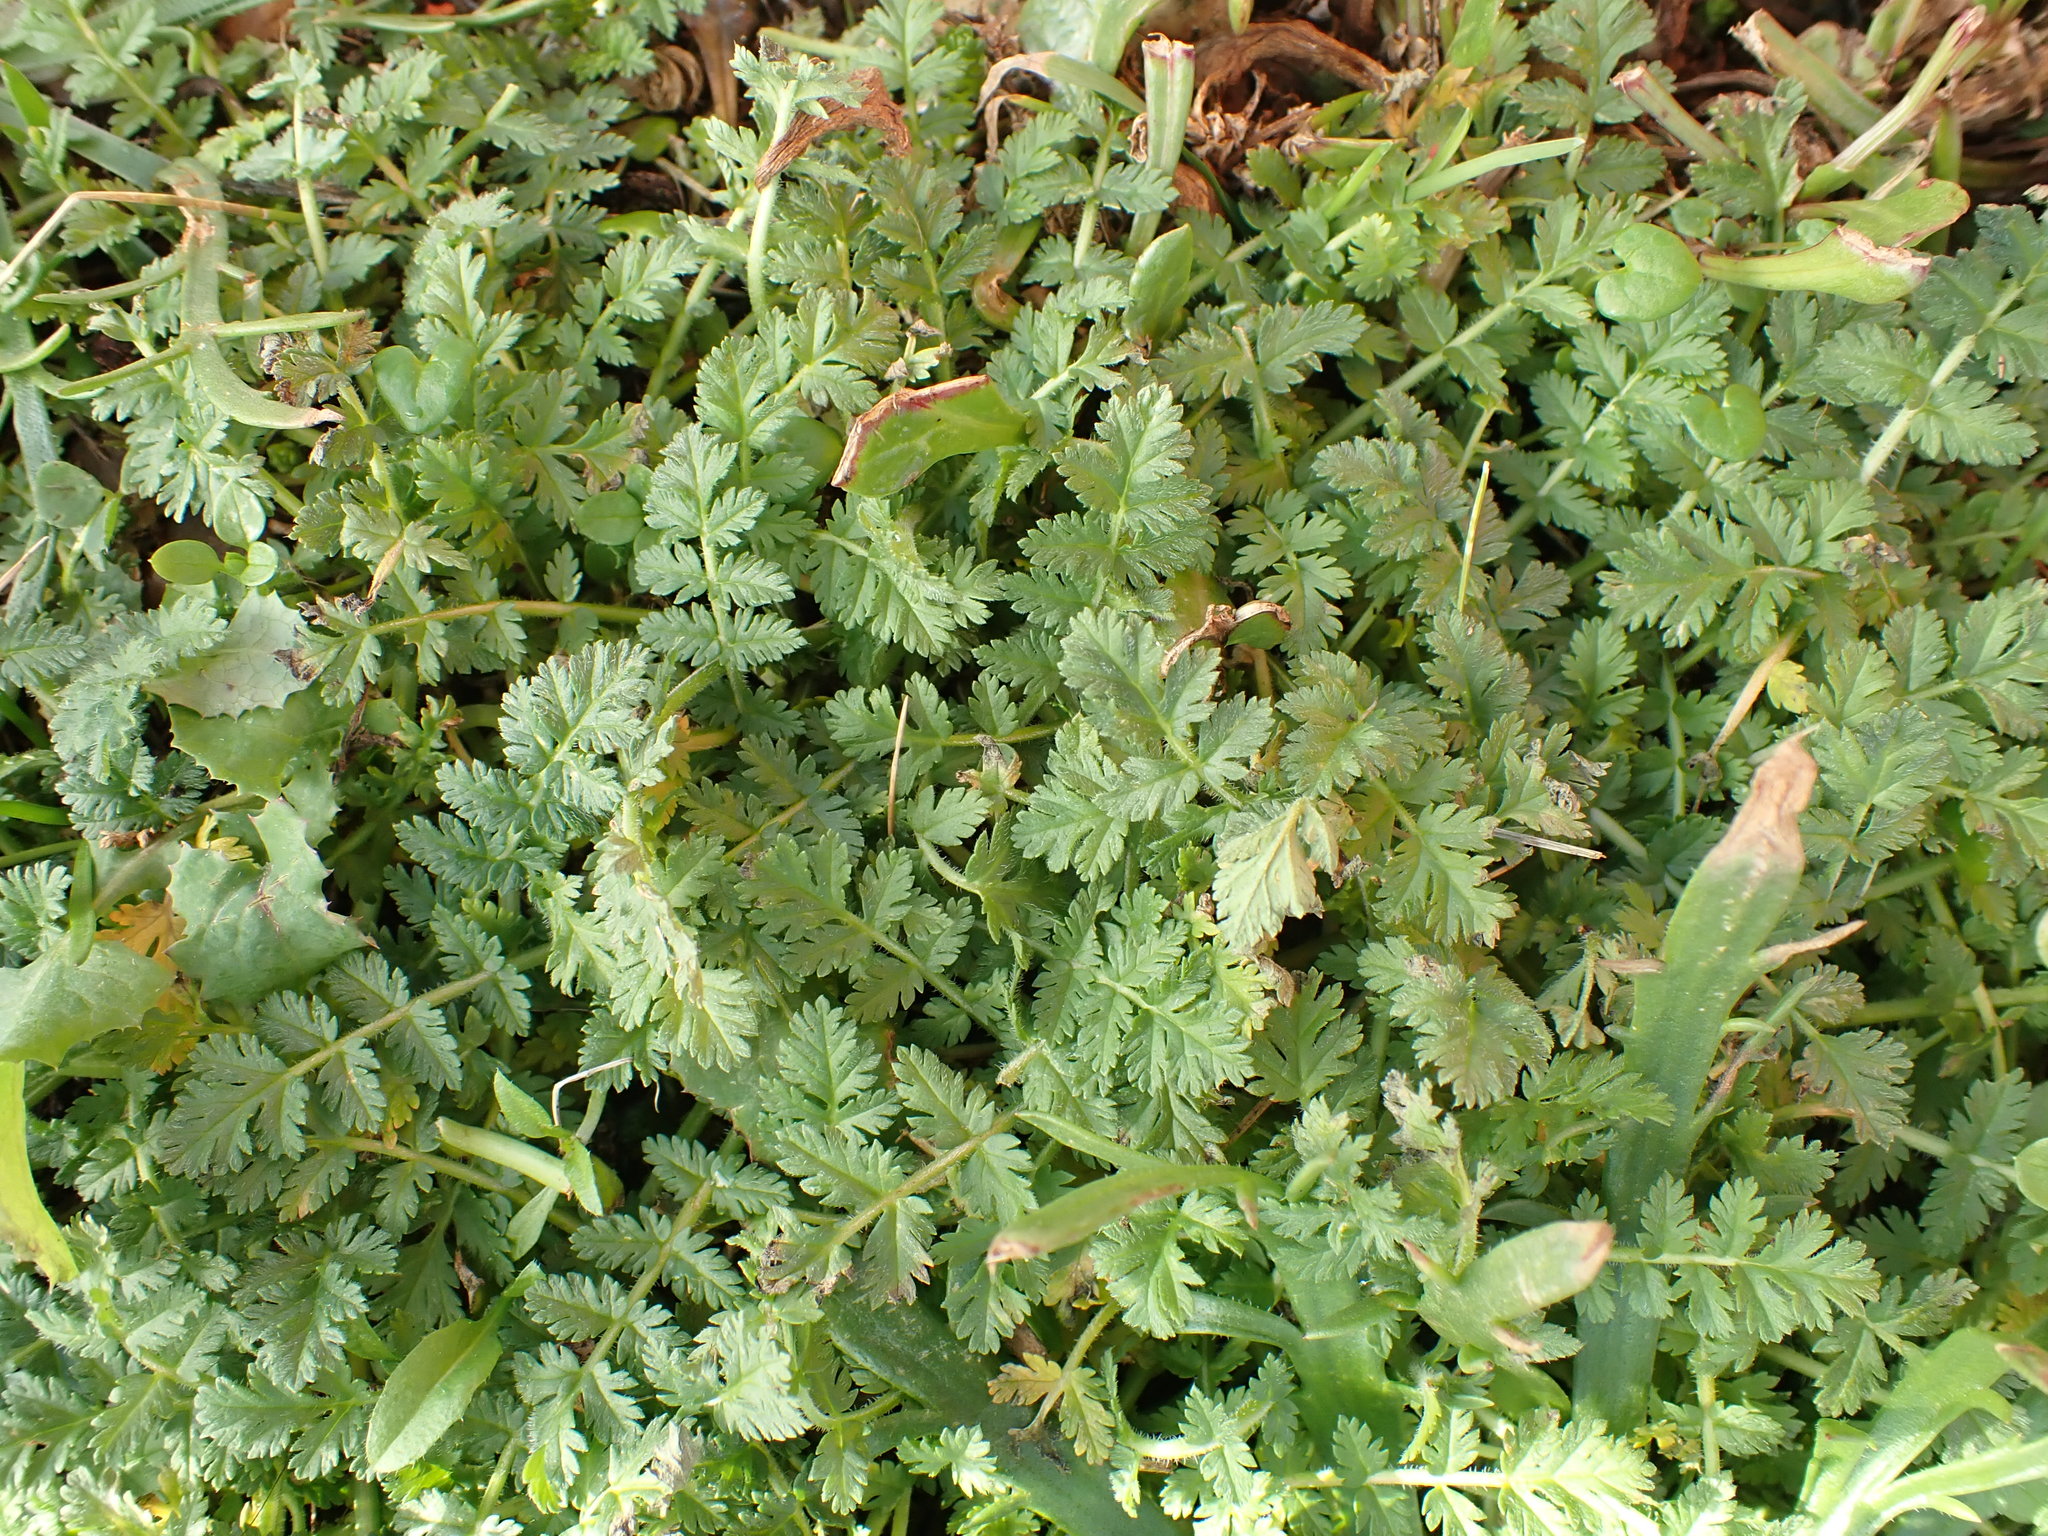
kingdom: Plantae
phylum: Tracheophyta
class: Magnoliopsida
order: Geraniales
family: Geraniaceae
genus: Erodium
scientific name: Erodium cicutarium
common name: Common stork's-bill
